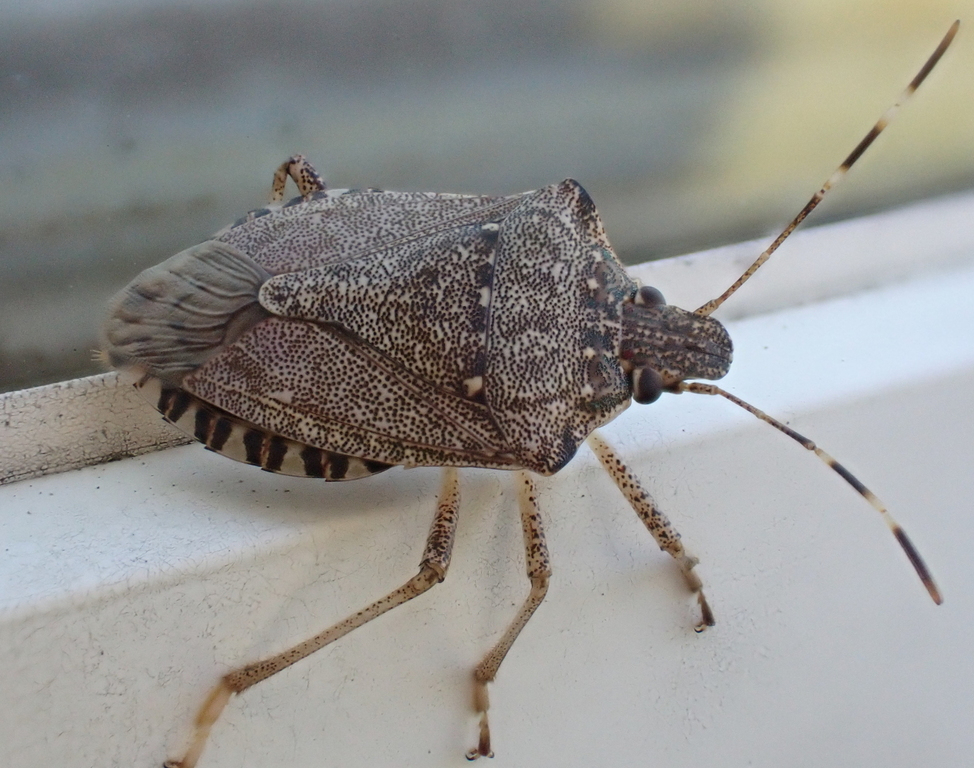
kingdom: Animalia
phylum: Arthropoda
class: Insecta
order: Hemiptera
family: Pentatomidae
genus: Halyomorpha
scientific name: Halyomorpha halys
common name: Brown marmorated stink bug
